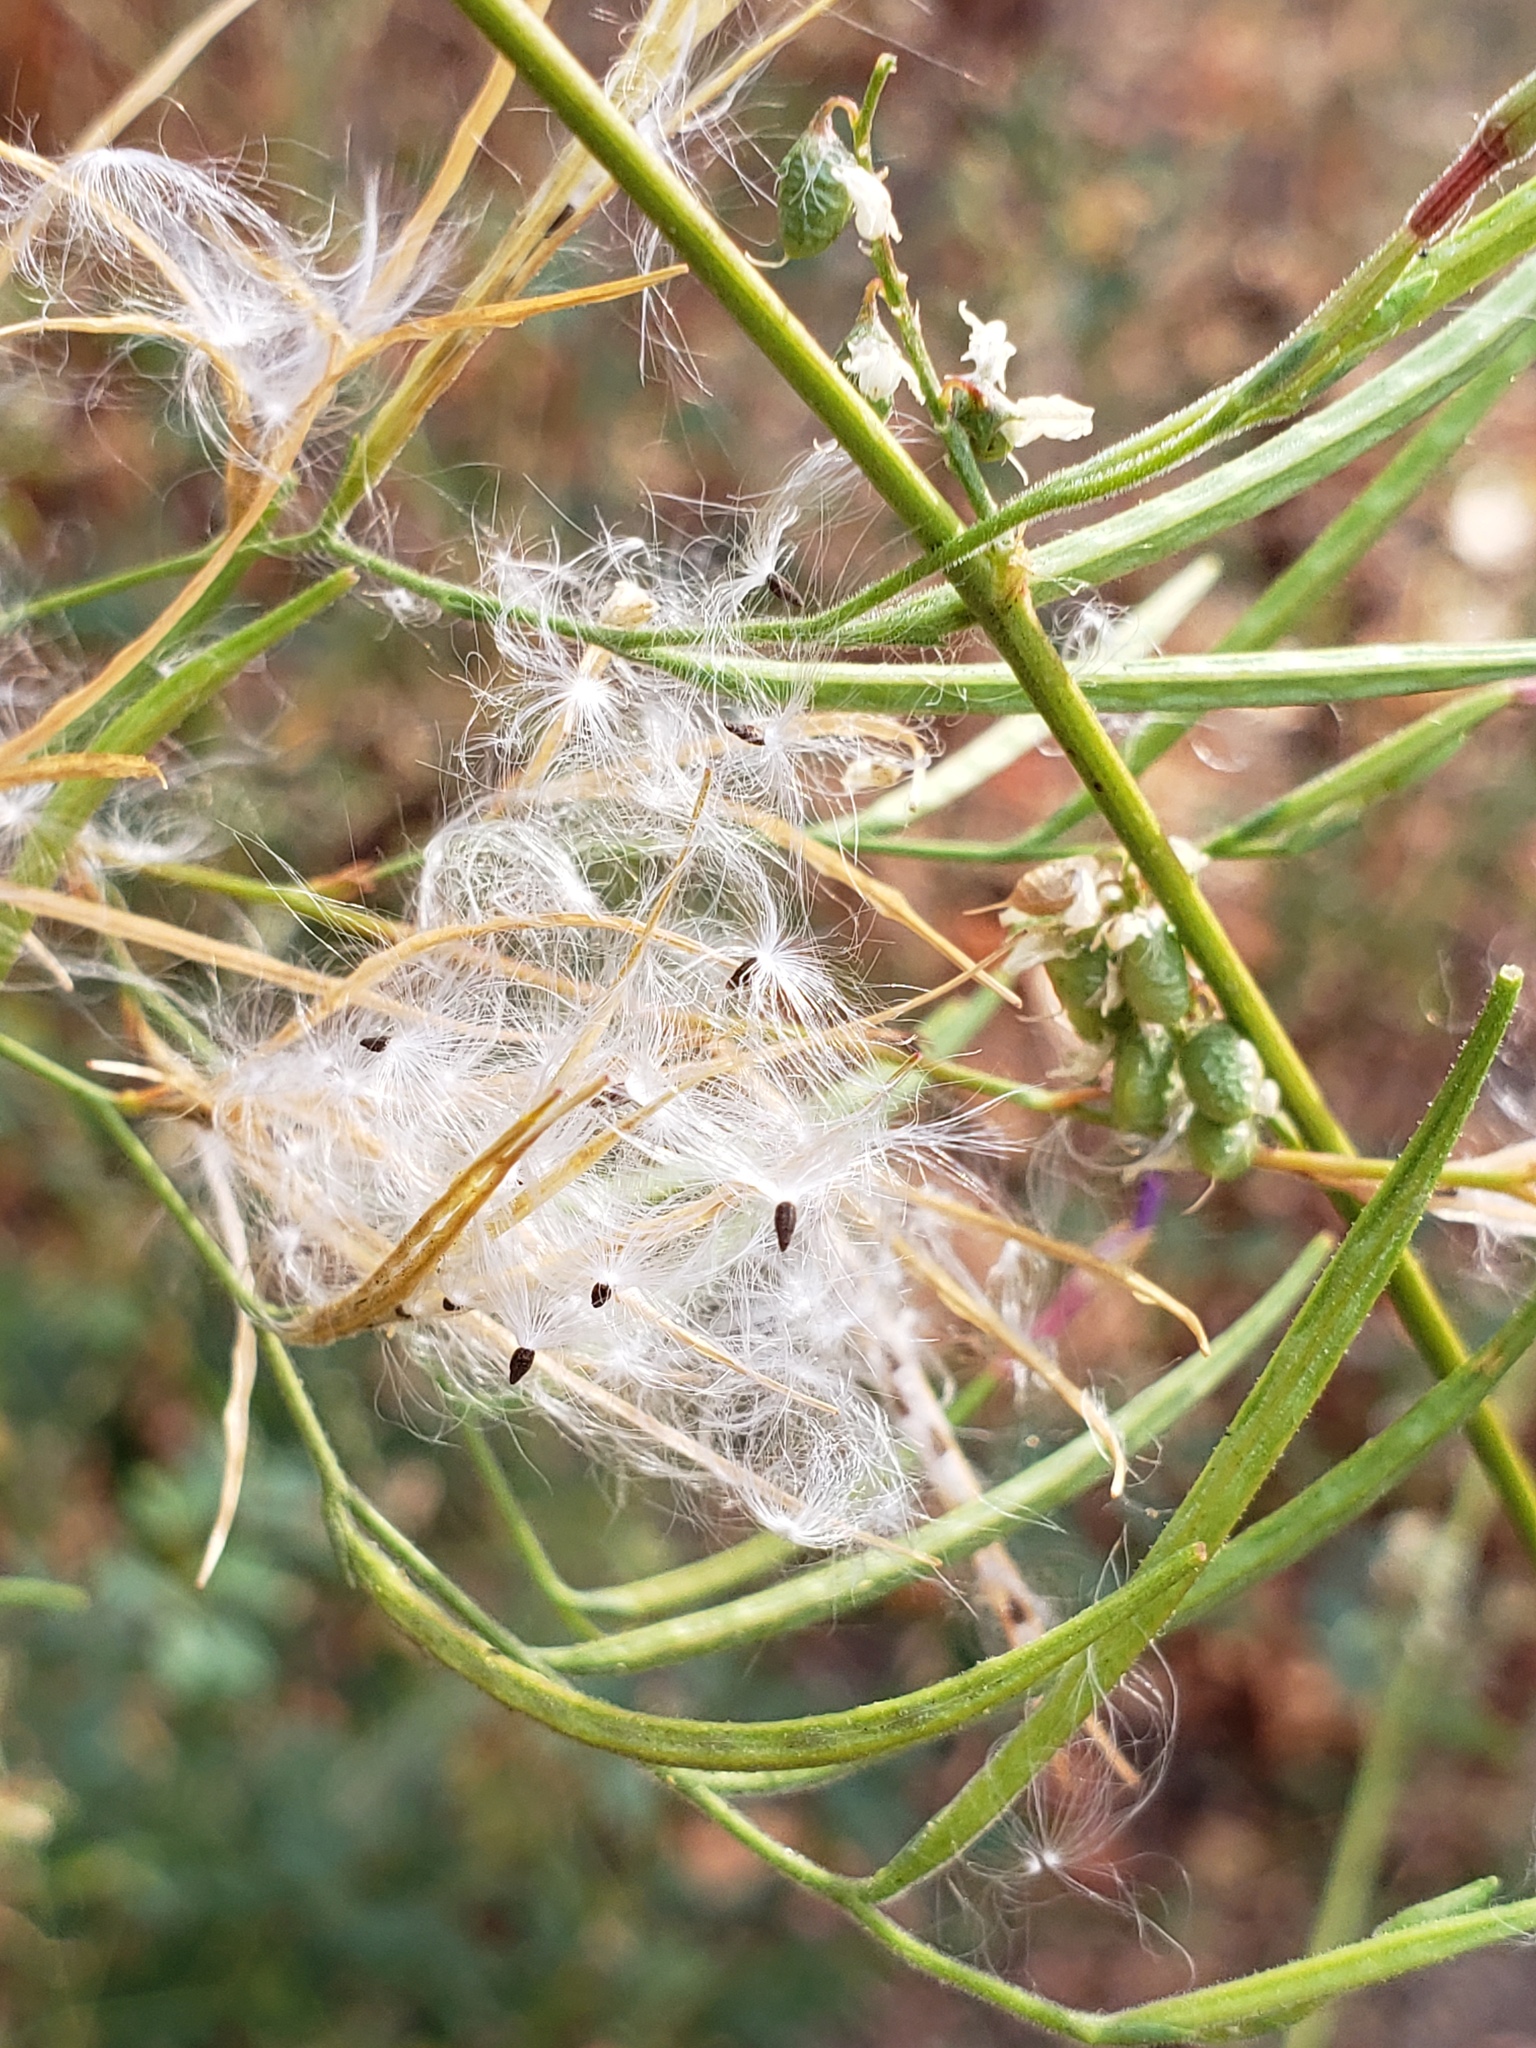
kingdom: Plantae
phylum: Tracheophyta
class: Magnoliopsida
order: Myrtales
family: Onagraceae
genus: Epilobium
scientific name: Epilobium brachycarpum
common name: Annual willowherb
